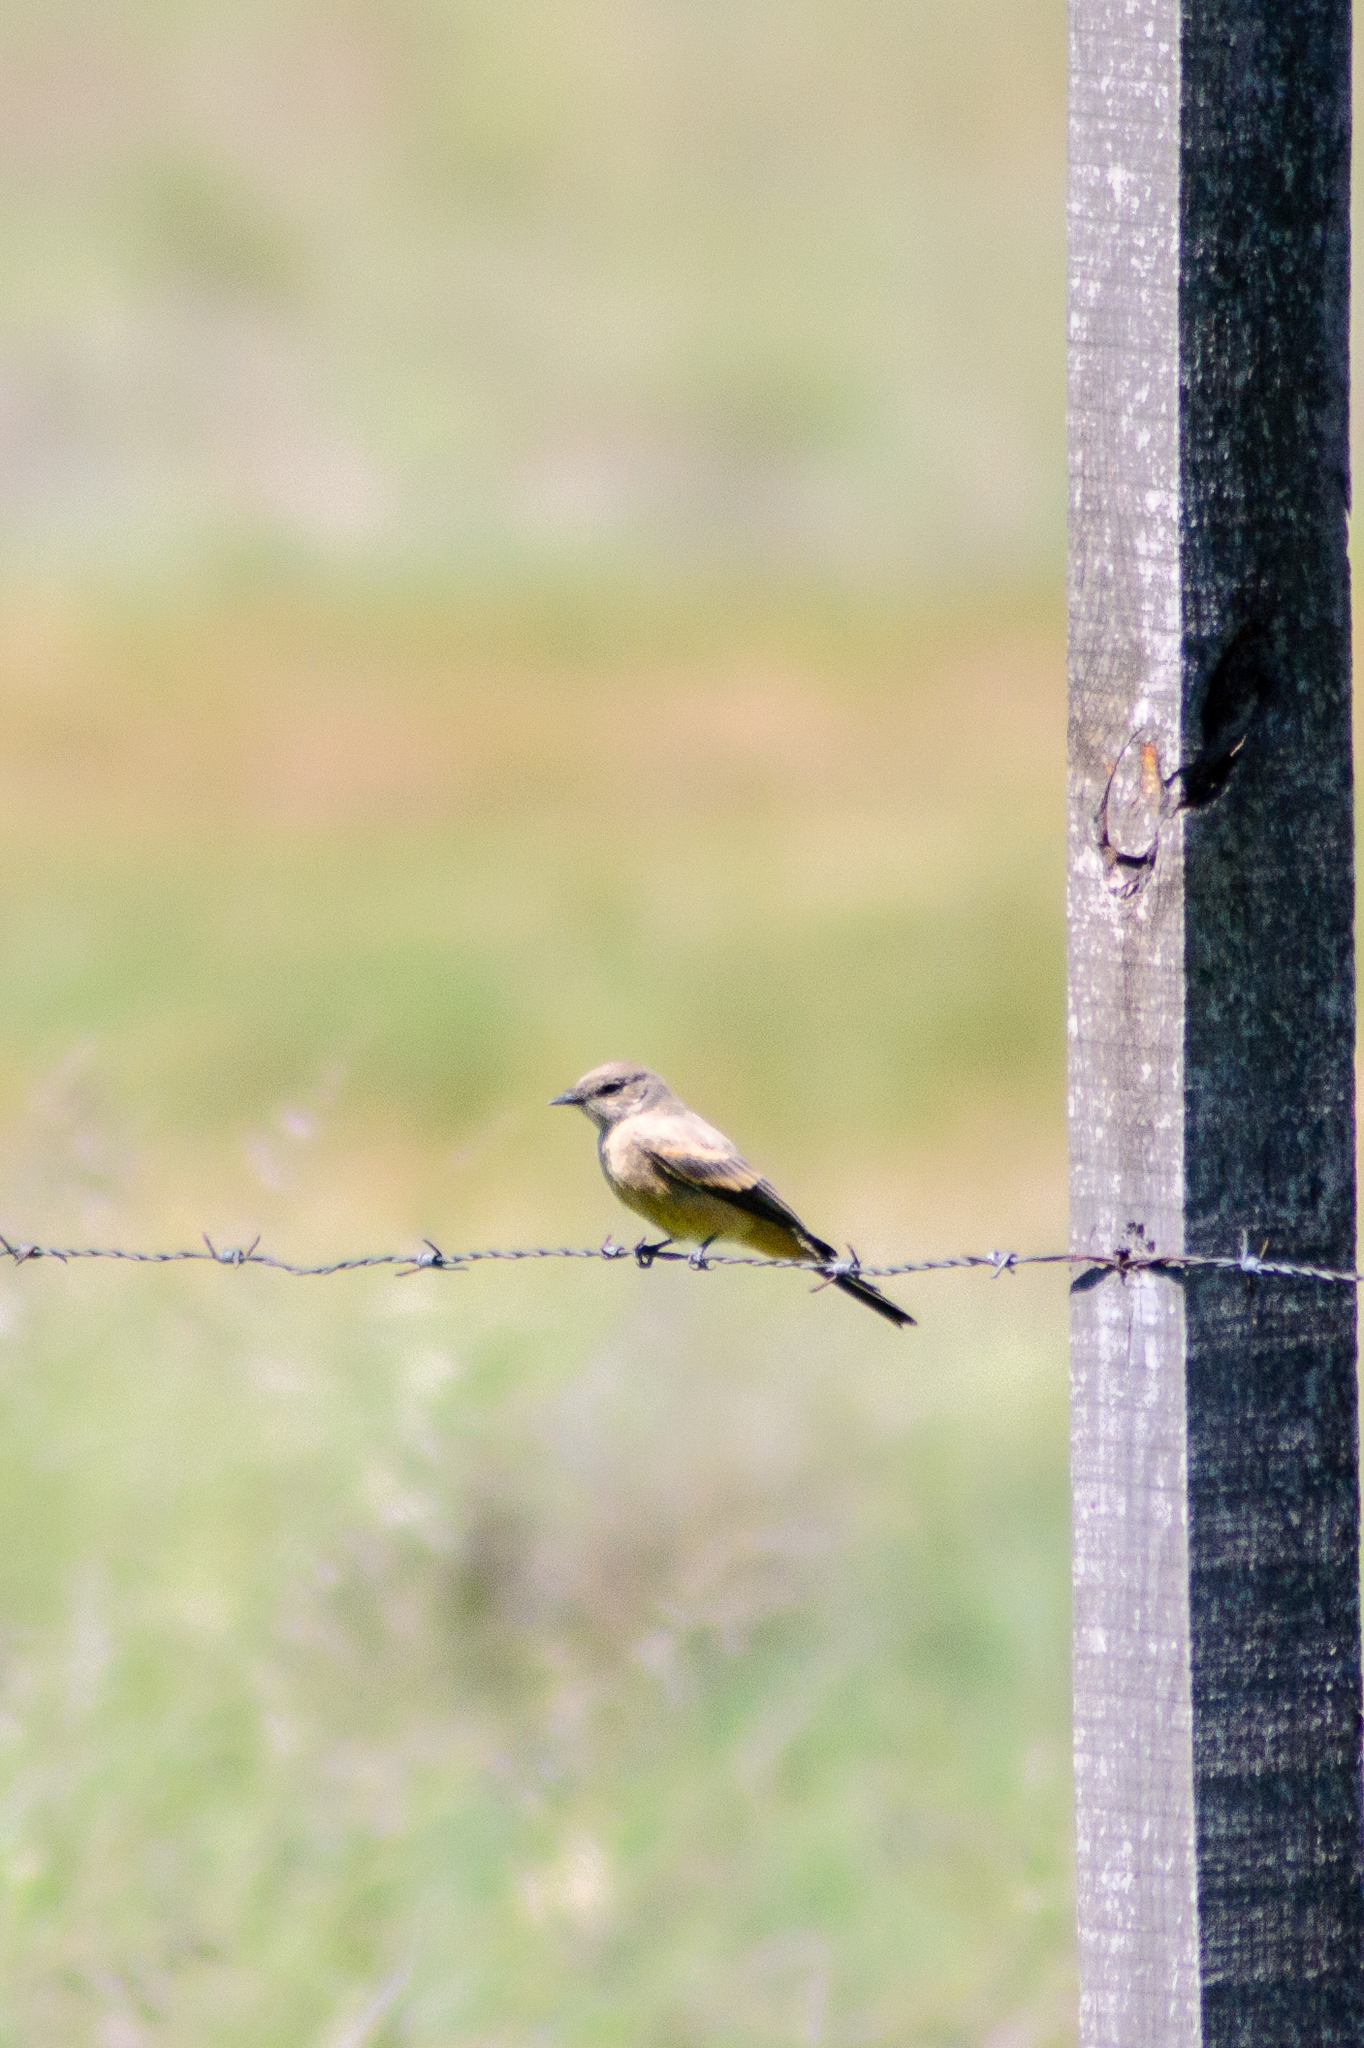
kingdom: Animalia
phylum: Chordata
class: Aves
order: Passeriformes
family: Tyrannidae
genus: Sayornis
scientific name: Sayornis saya
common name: Say's phoebe
